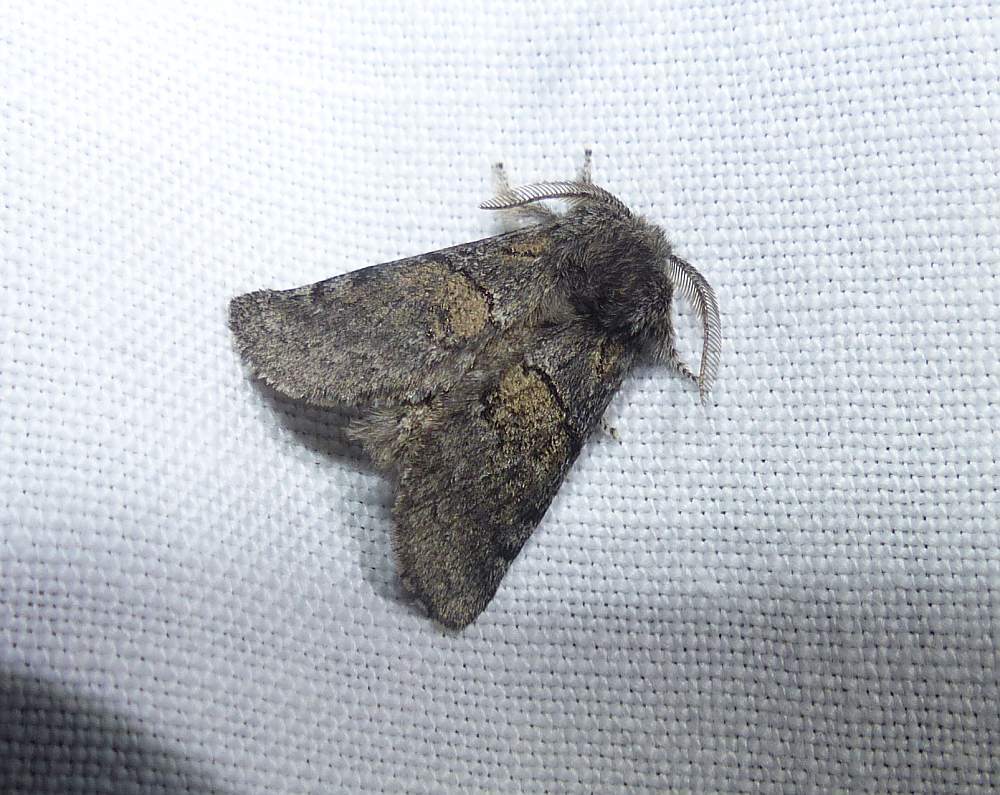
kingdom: Animalia
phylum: Arthropoda
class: Insecta
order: Lepidoptera
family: Notodontidae
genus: Gluphisia
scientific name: Gluphisia septentrionis
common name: Common gluphisia
